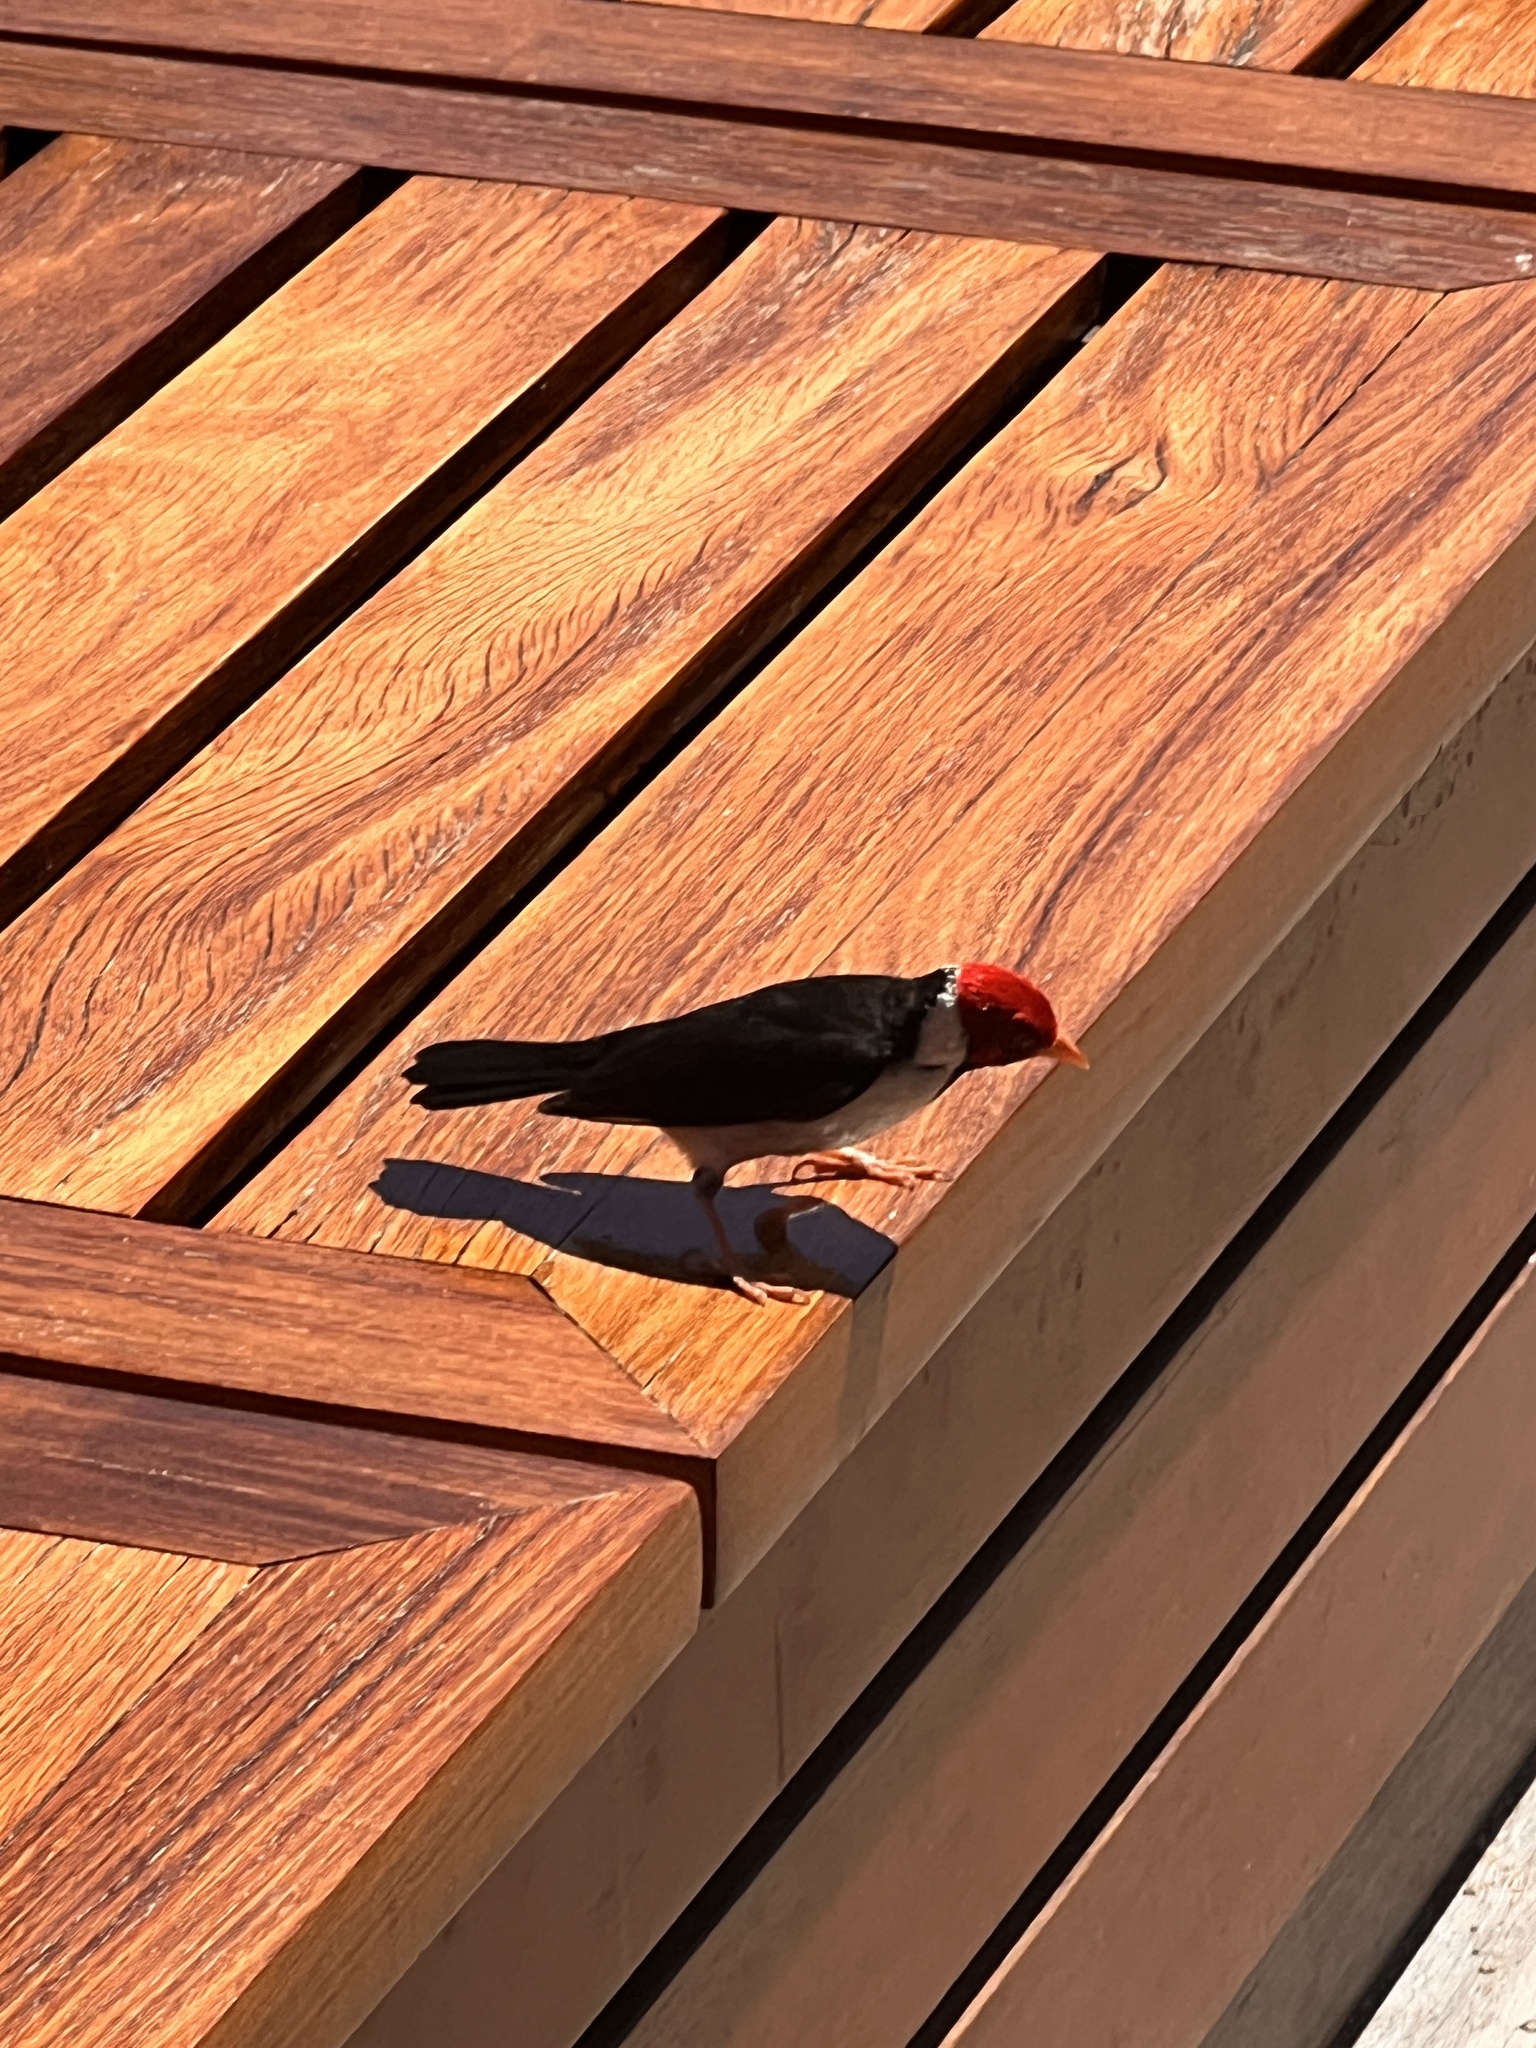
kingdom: Animalia
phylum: Chordata
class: Aves
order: Passeriformes
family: Thraupidae
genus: Paroaria
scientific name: Paroaria capitata
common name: Yellow-billed cardinal
